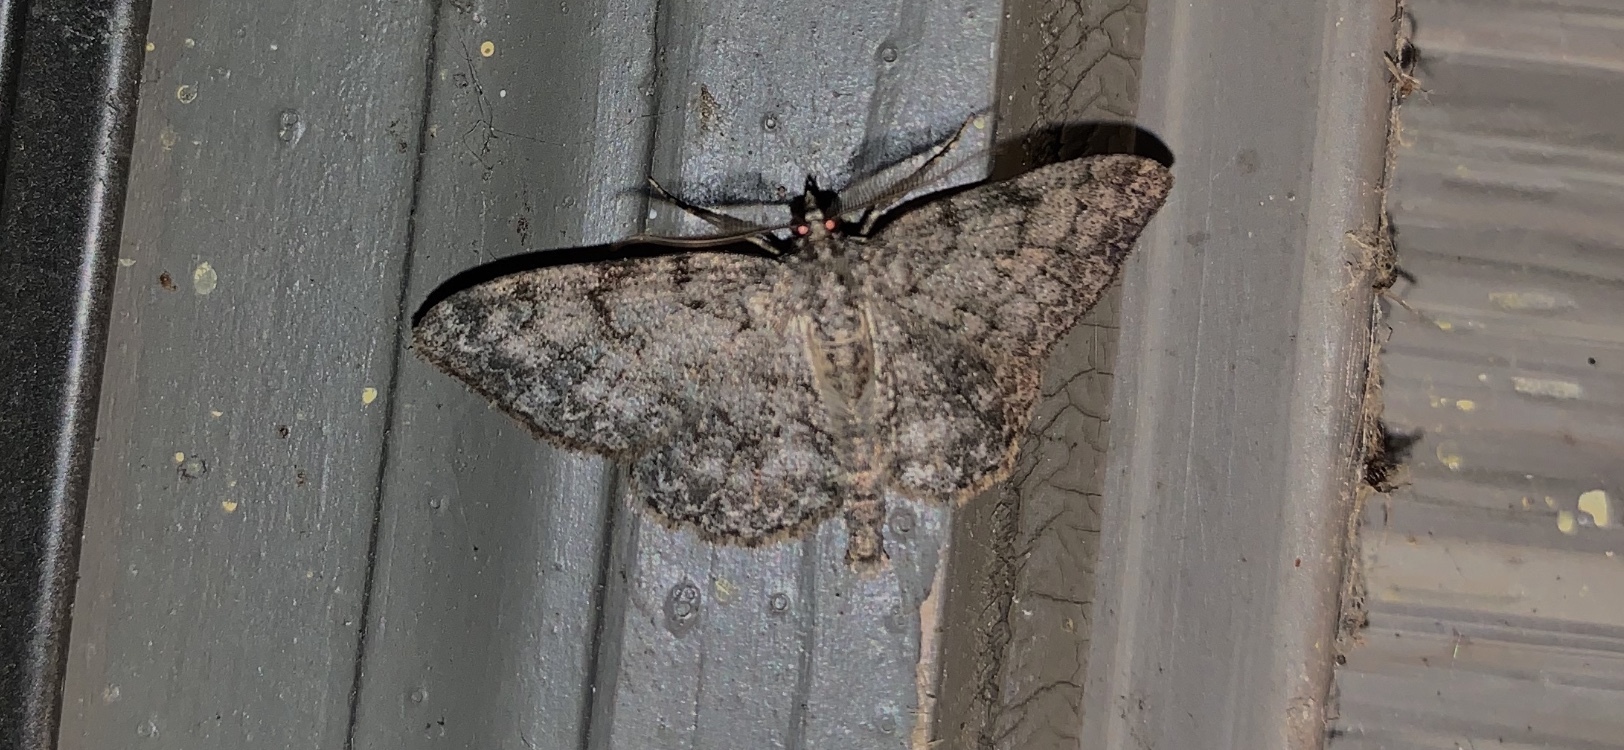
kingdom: Animalia
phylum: Arthropoda
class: Insecta
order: Lepidoptera
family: Geometridae
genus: Protoboarmia
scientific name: Protoboarmia porcelaria
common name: Porcelain gray
